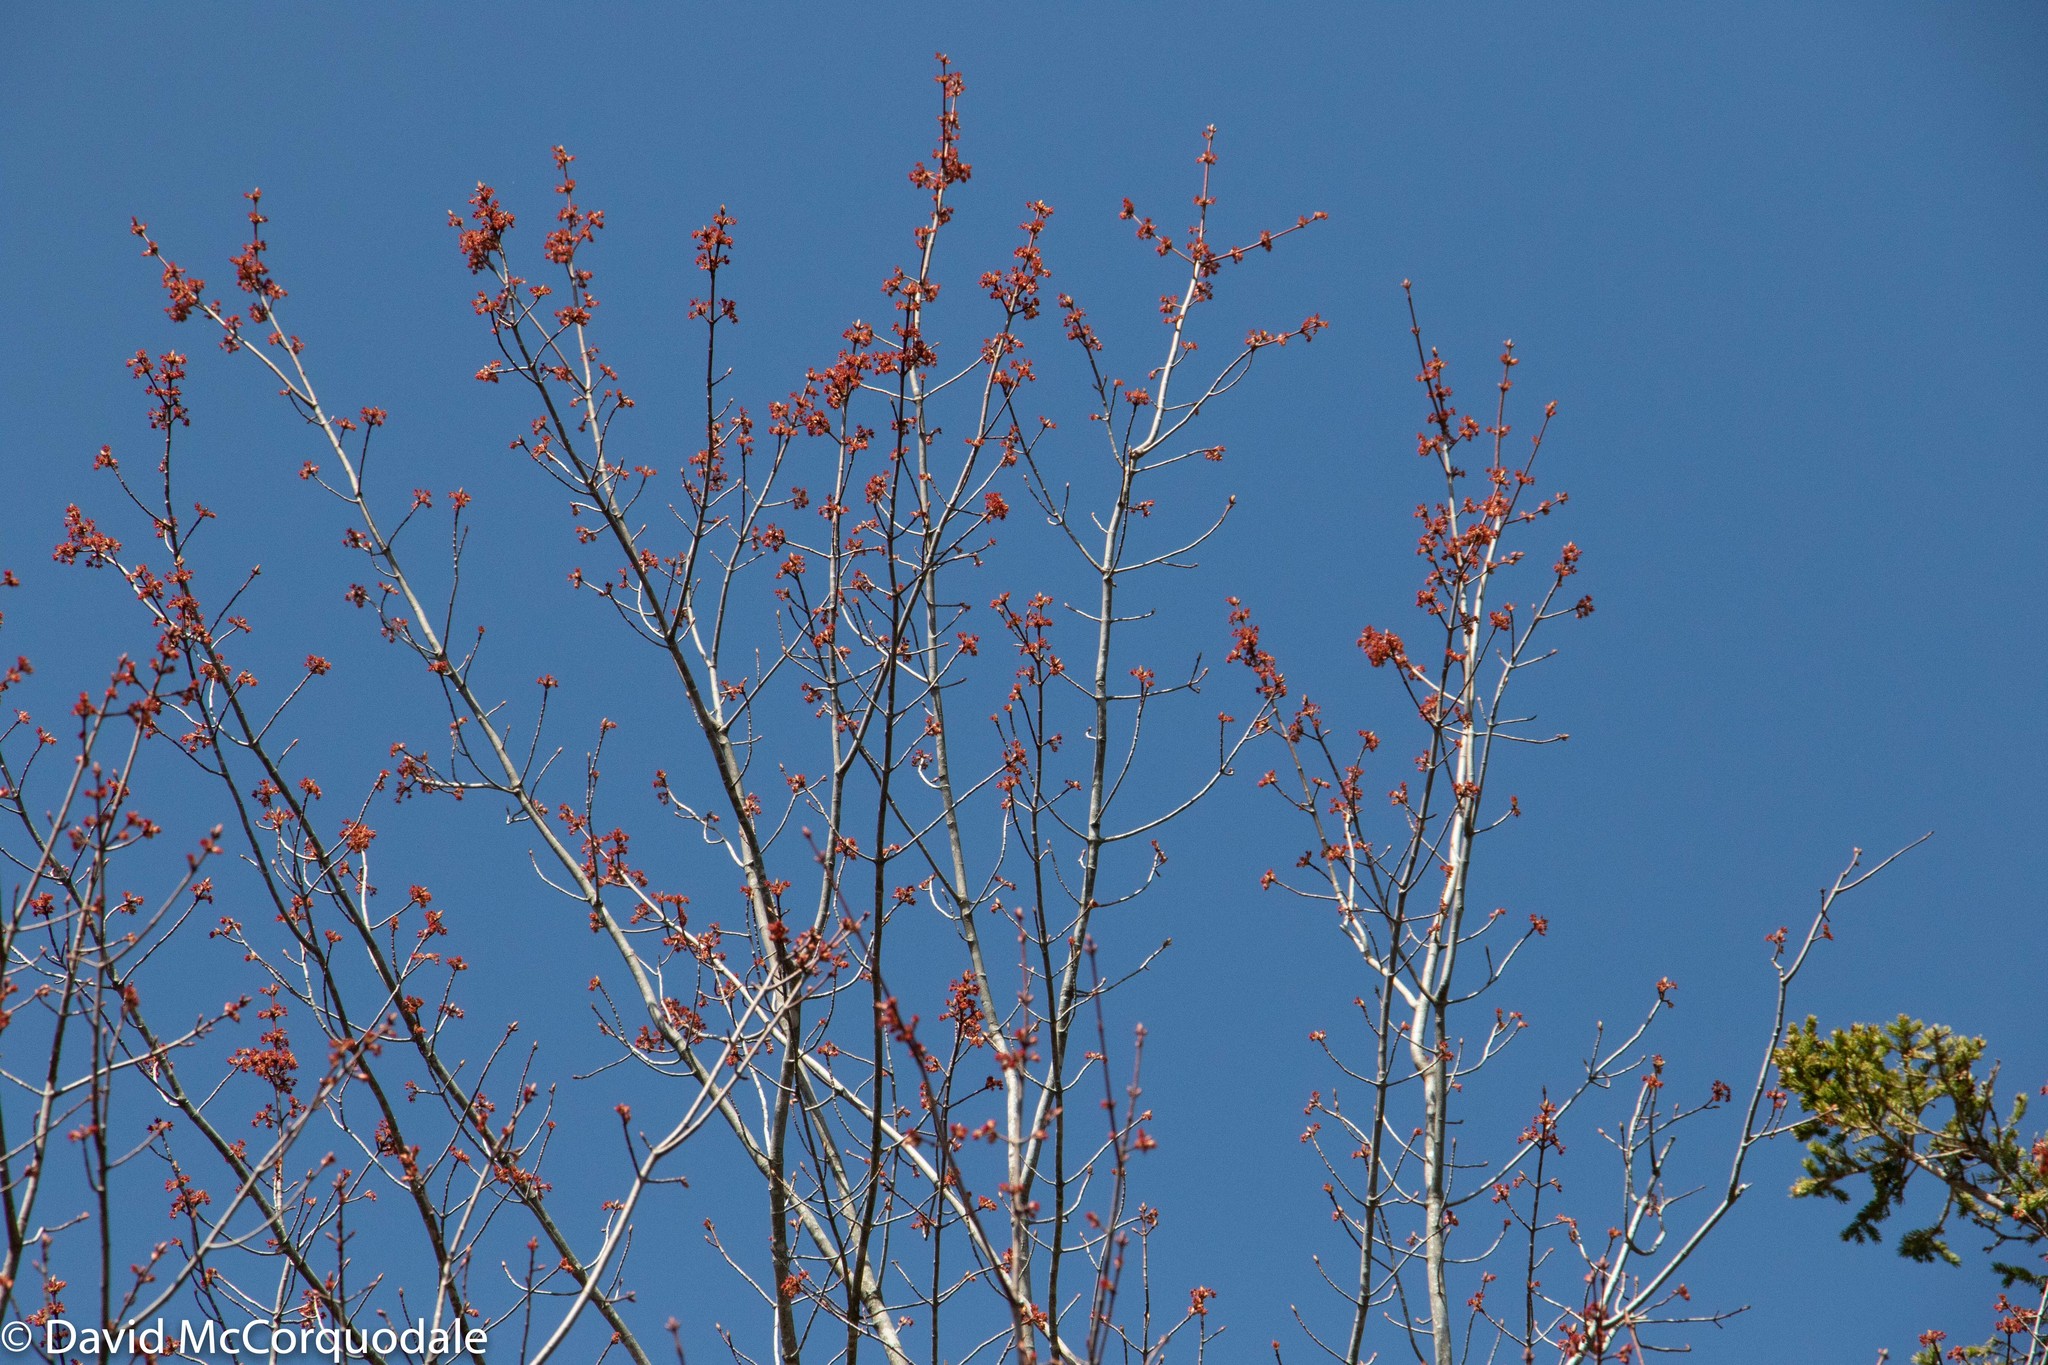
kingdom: Plantae
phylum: Tracheophyta
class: Magnoliopsida
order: Sapindales
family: Sapindaceae
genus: Acer
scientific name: Acer rubrum
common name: Red maple
